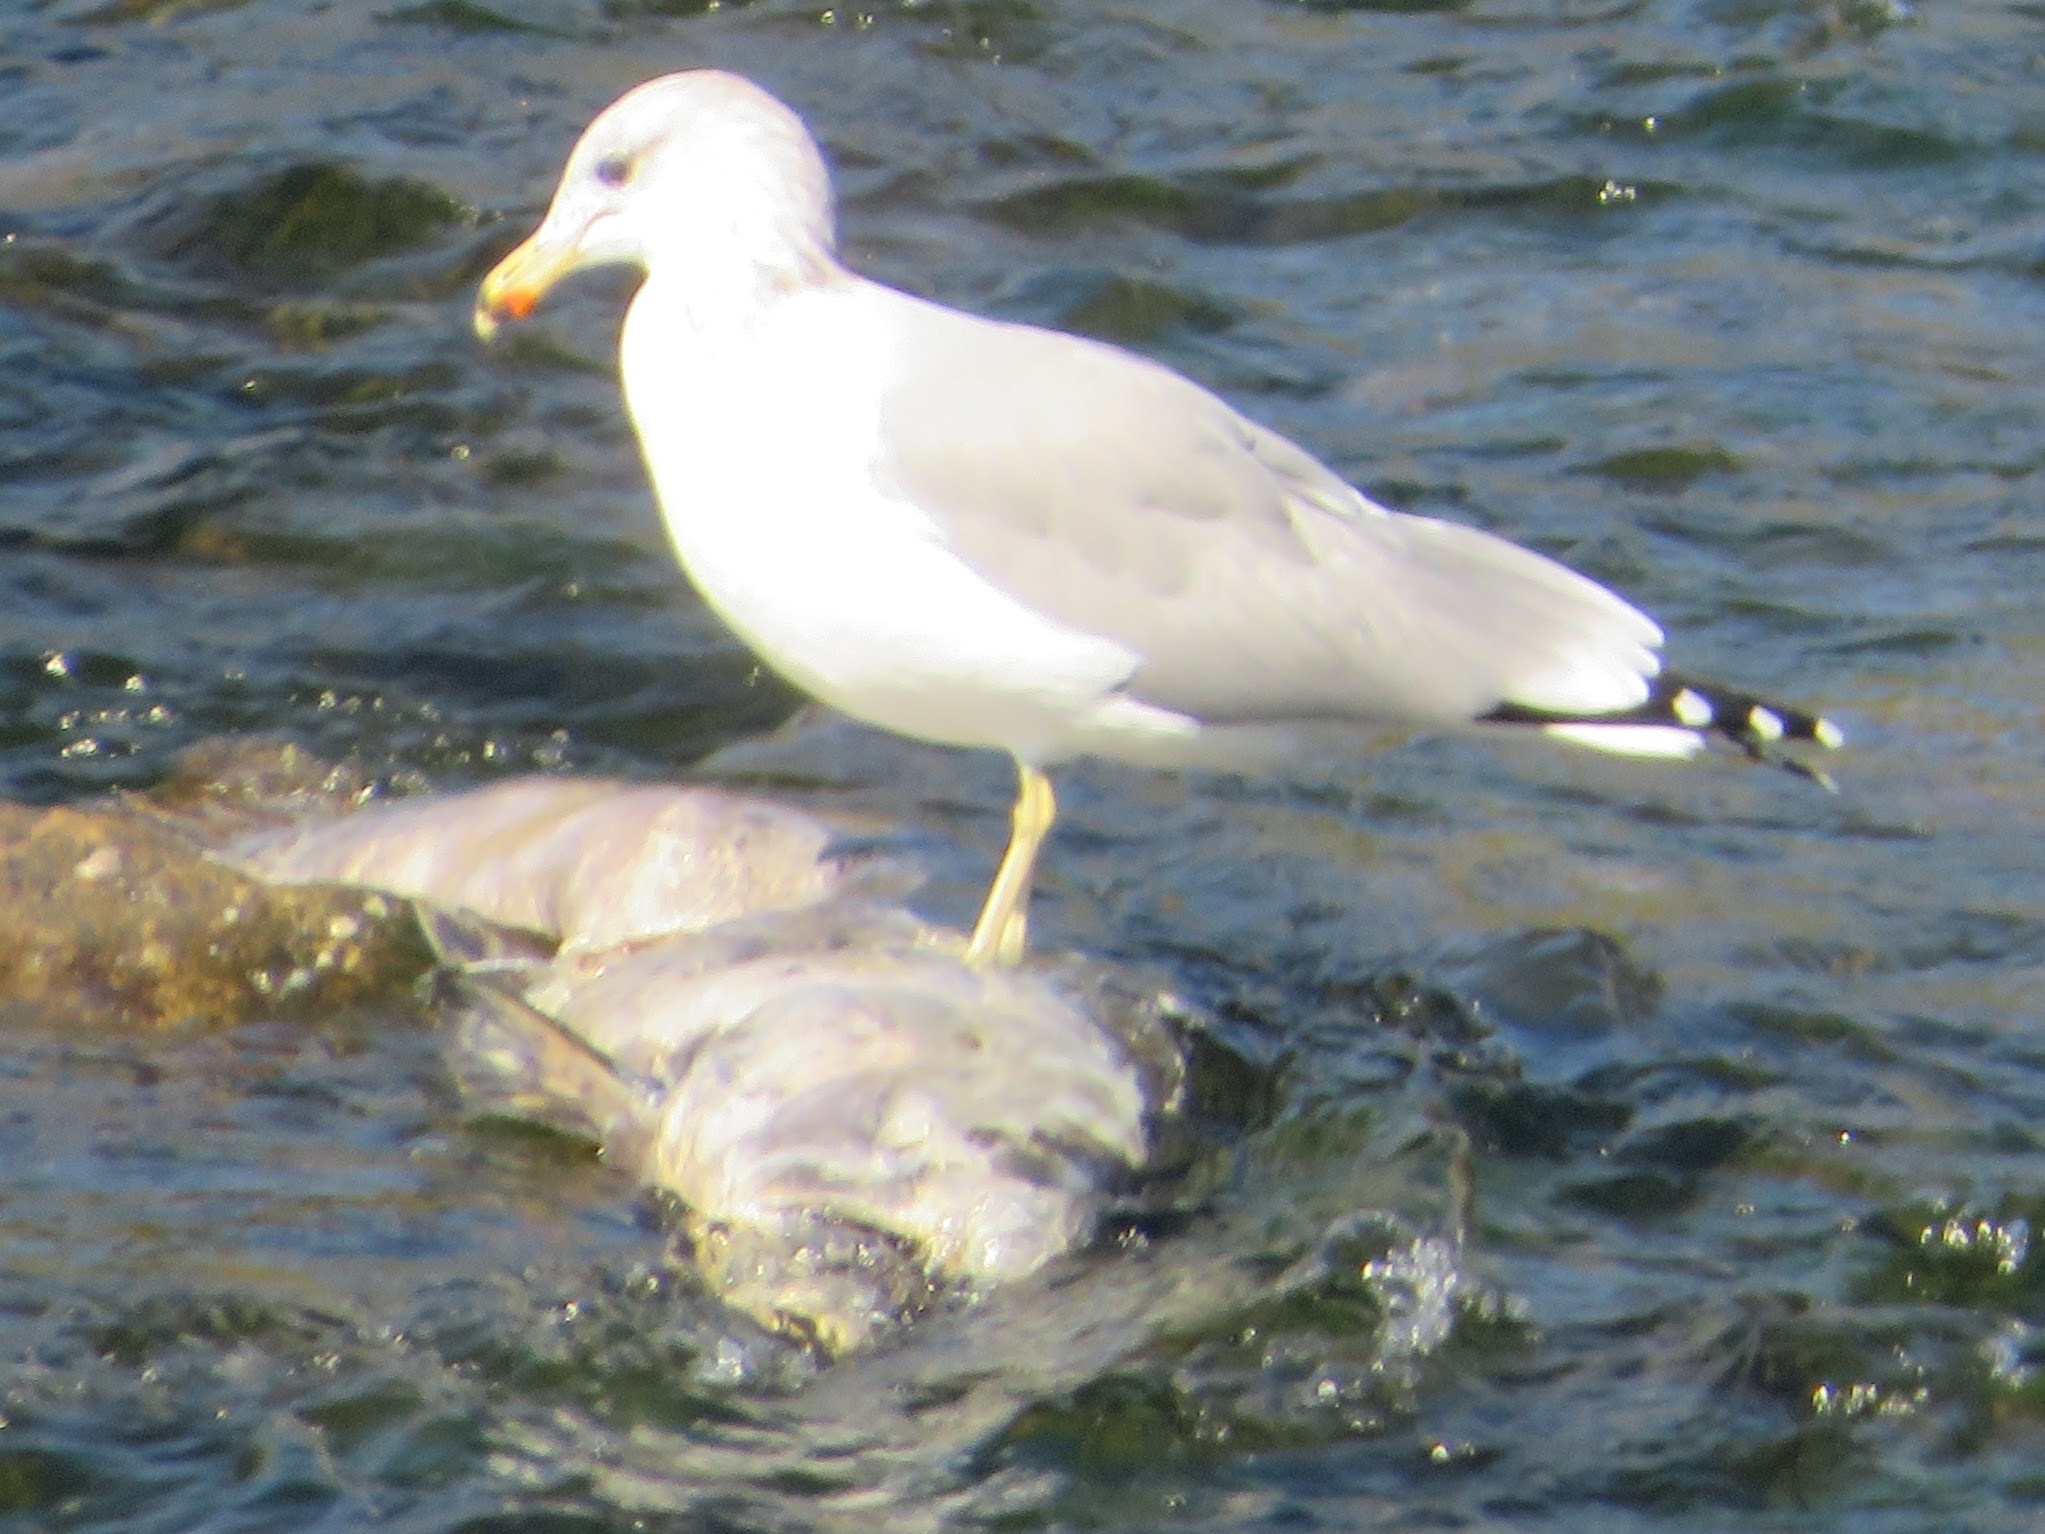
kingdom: Animalia
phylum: Chordata
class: Aves
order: Charadriiformes
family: Laridae
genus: Larus
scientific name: Larus californicus
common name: California gull
